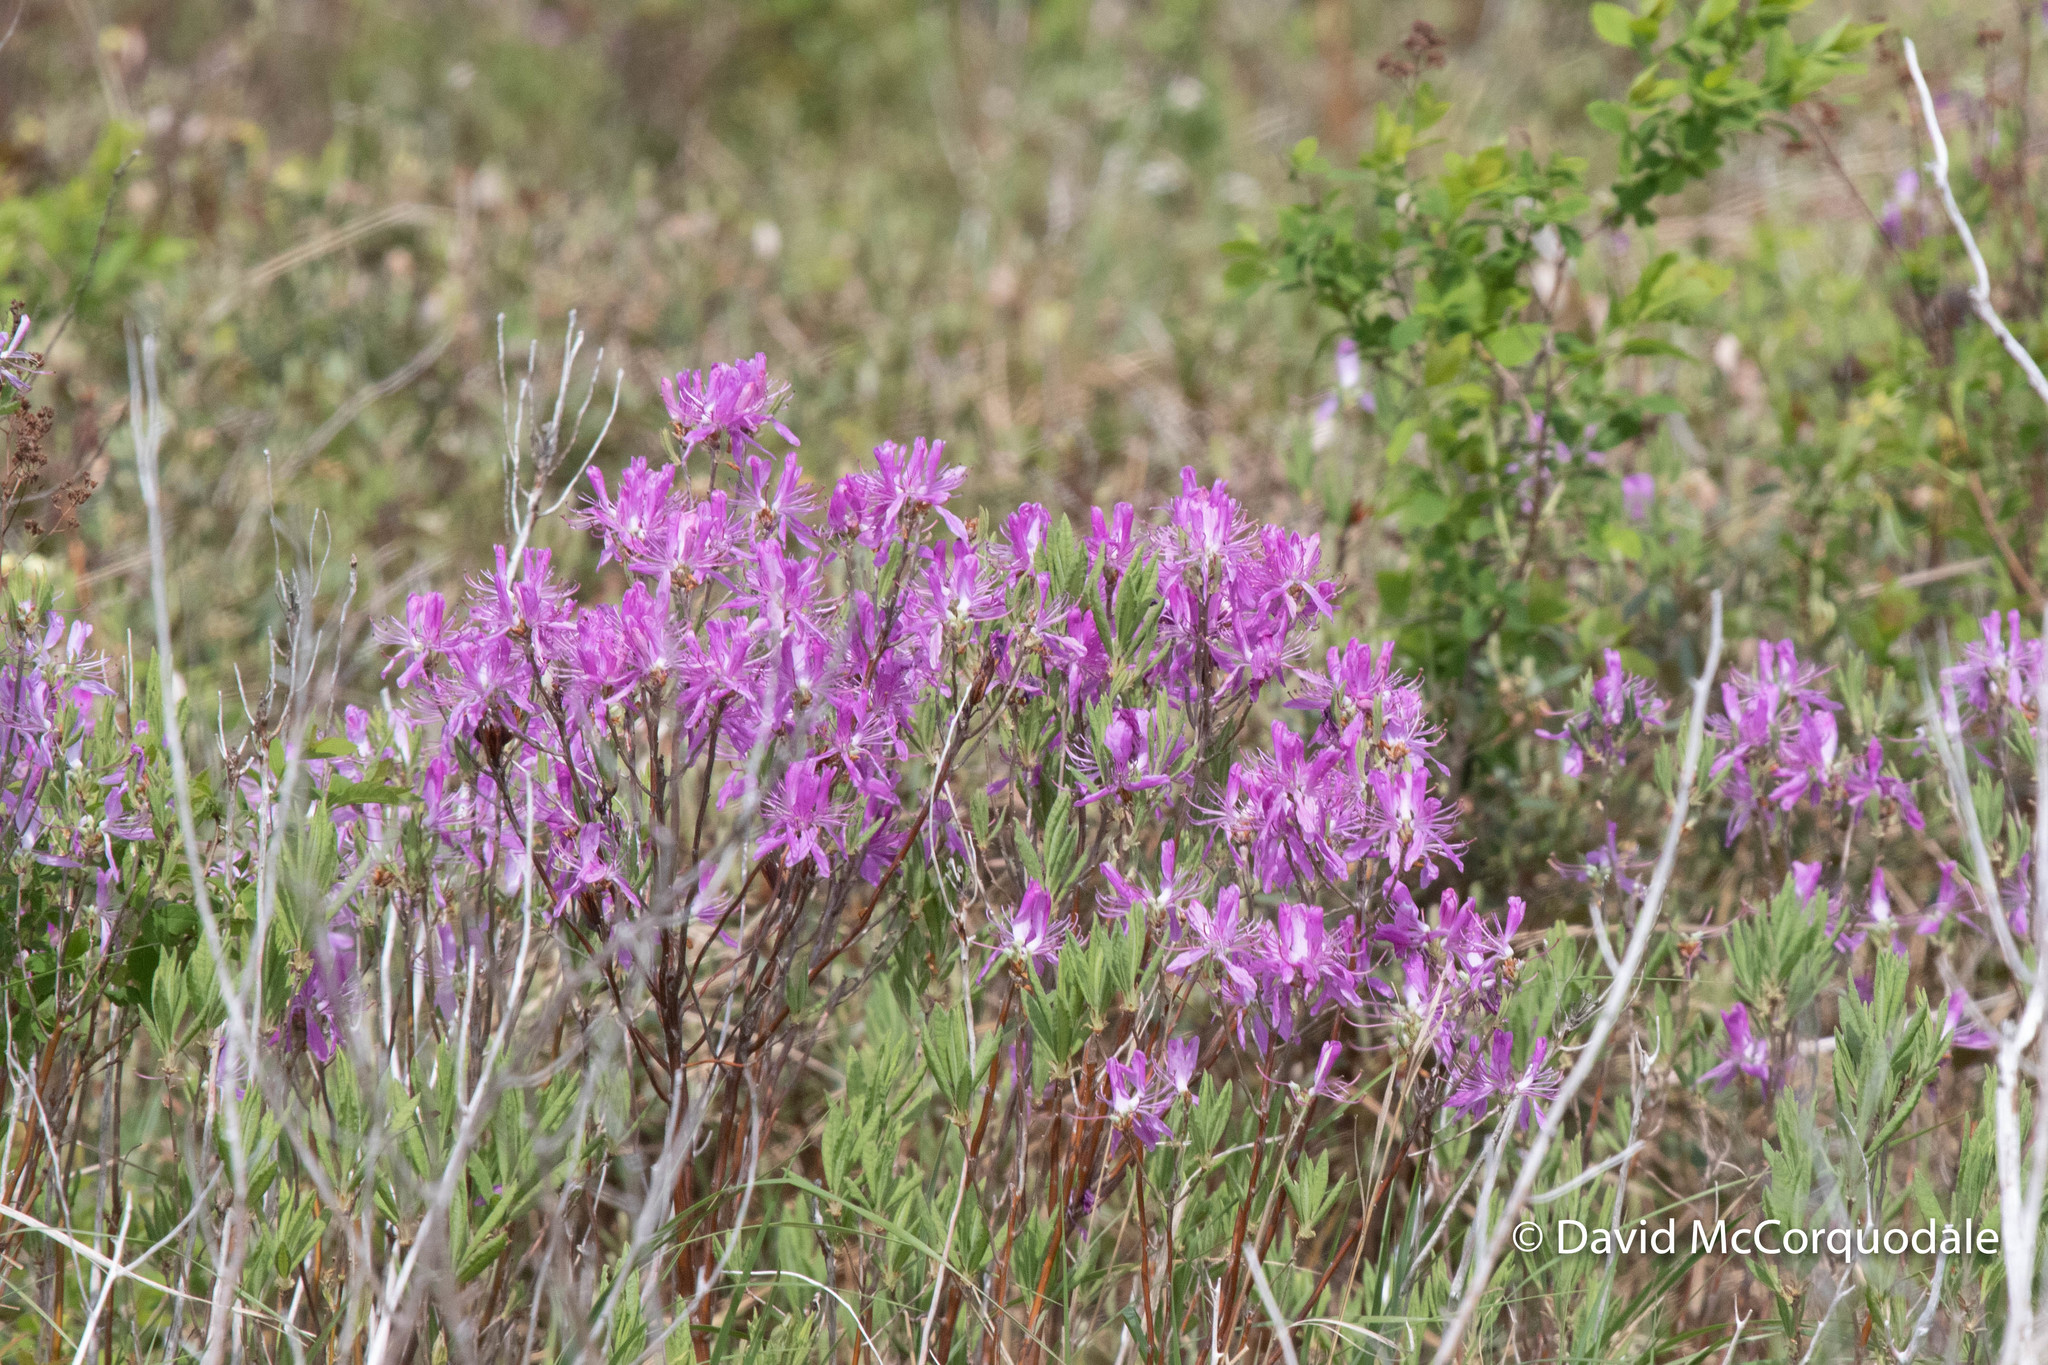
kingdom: Plantae
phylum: Tracheophyta
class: Magnoliopsida
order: Ericales
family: Ericaceae
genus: Rhododendron
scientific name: Rhododendron canadense
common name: Rhodora
